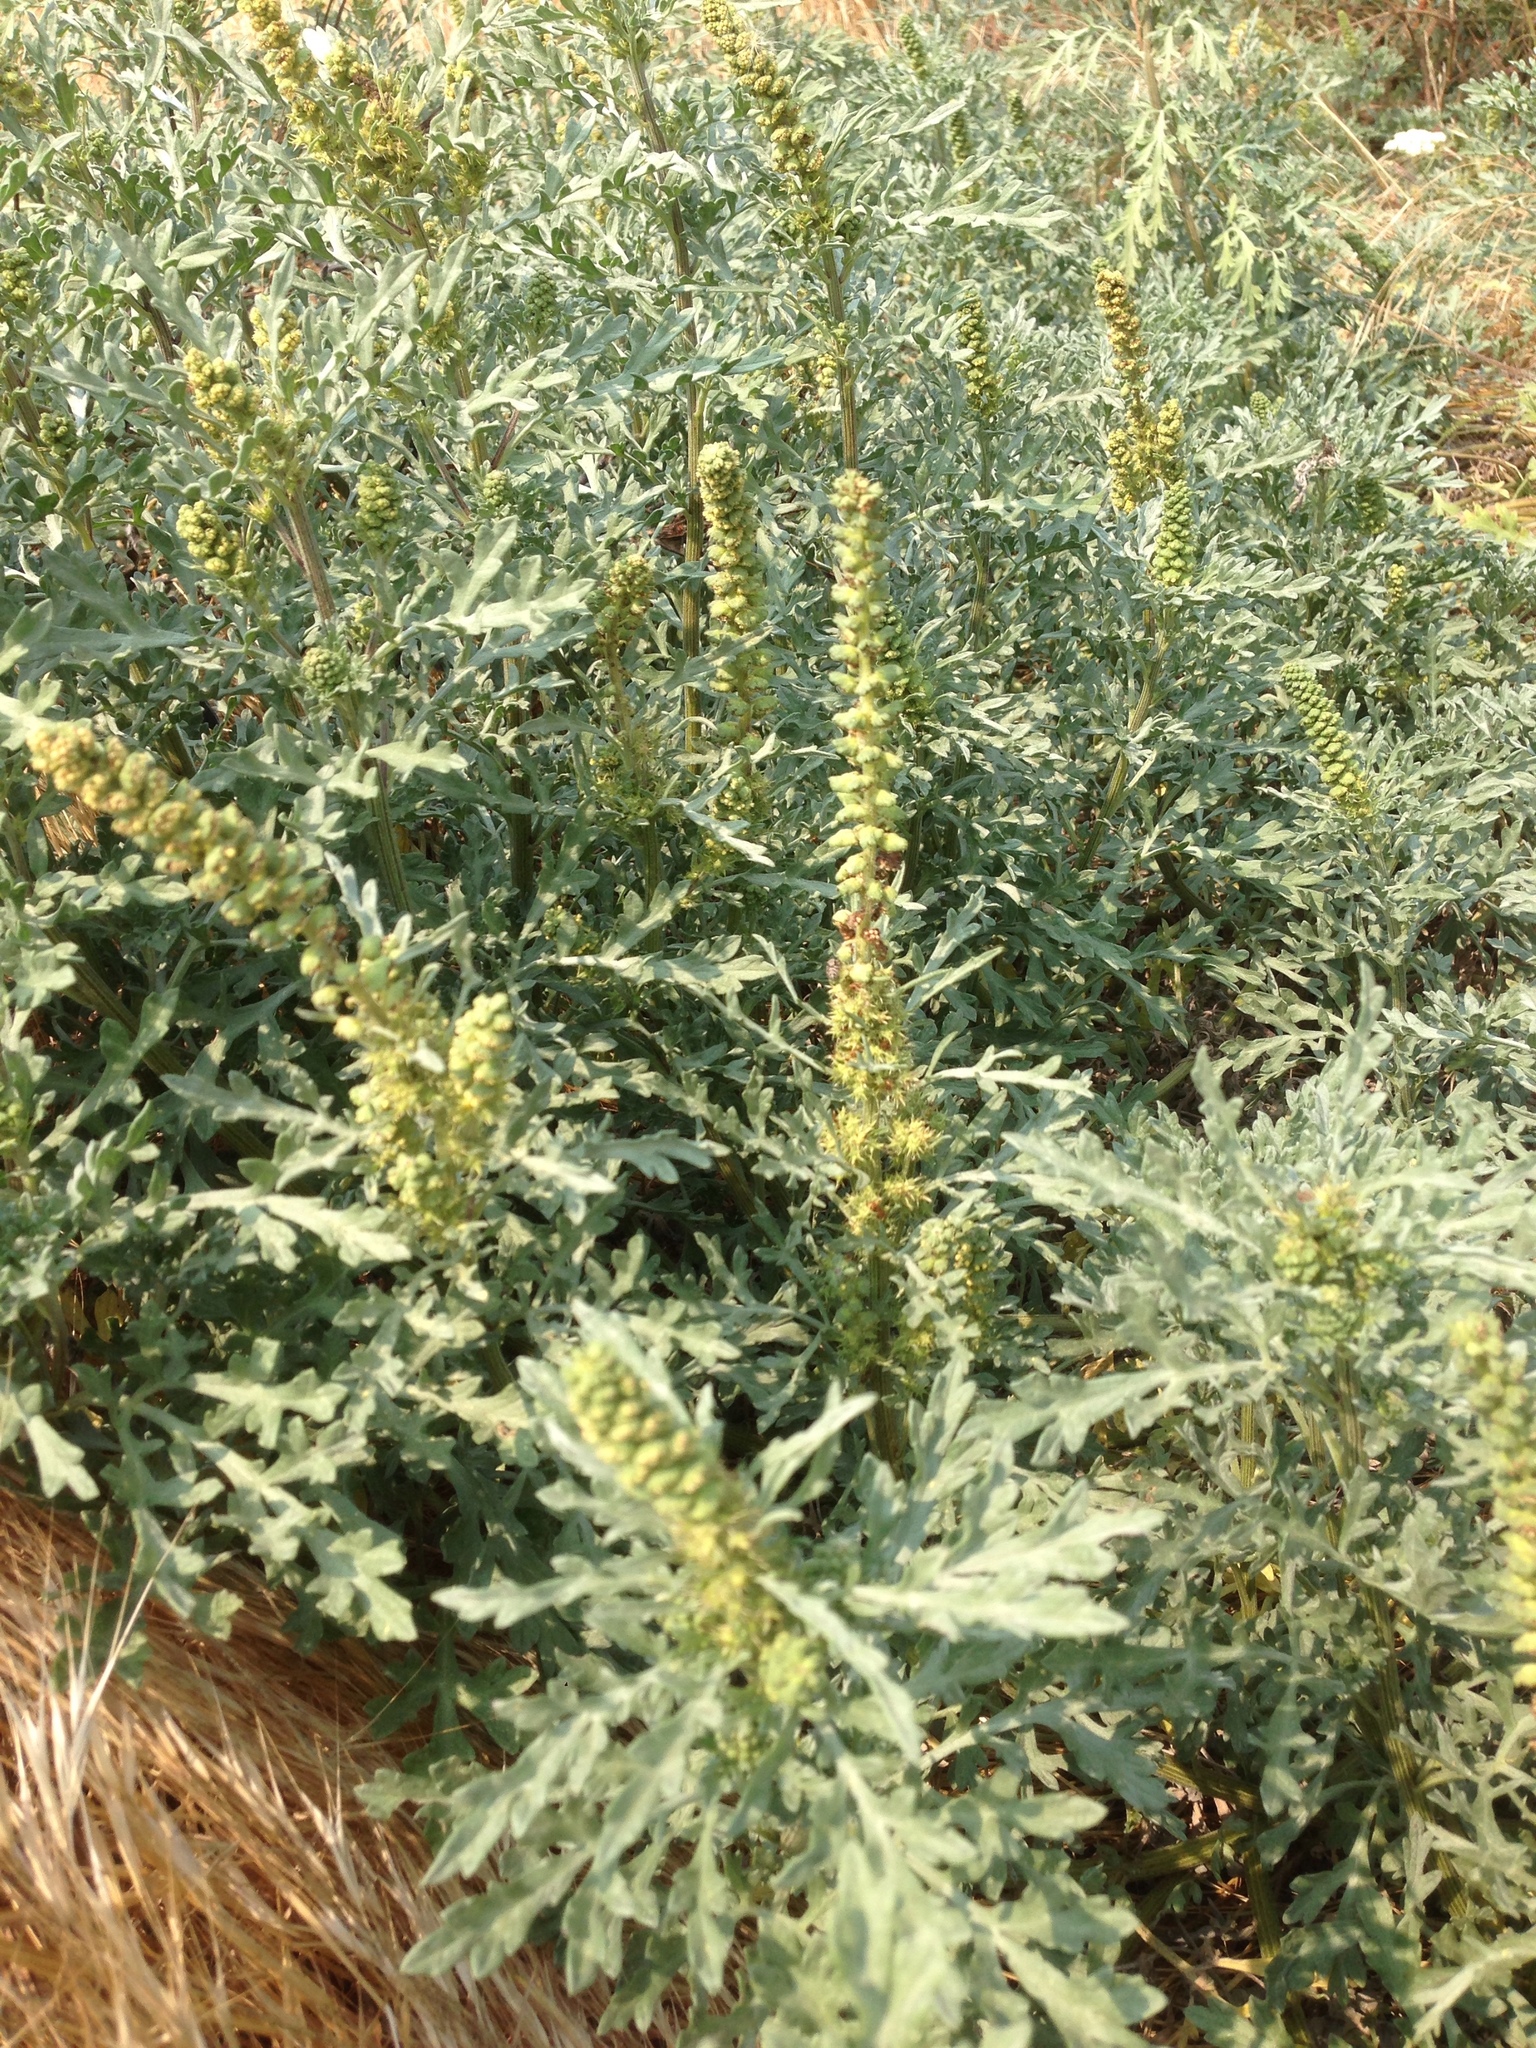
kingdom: Plantae
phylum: Tracheophyta
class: Magnoliopsida
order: Asterales
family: Asteraceae
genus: Ambrosia
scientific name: Ambrosia chamissonis
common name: Beachbur
